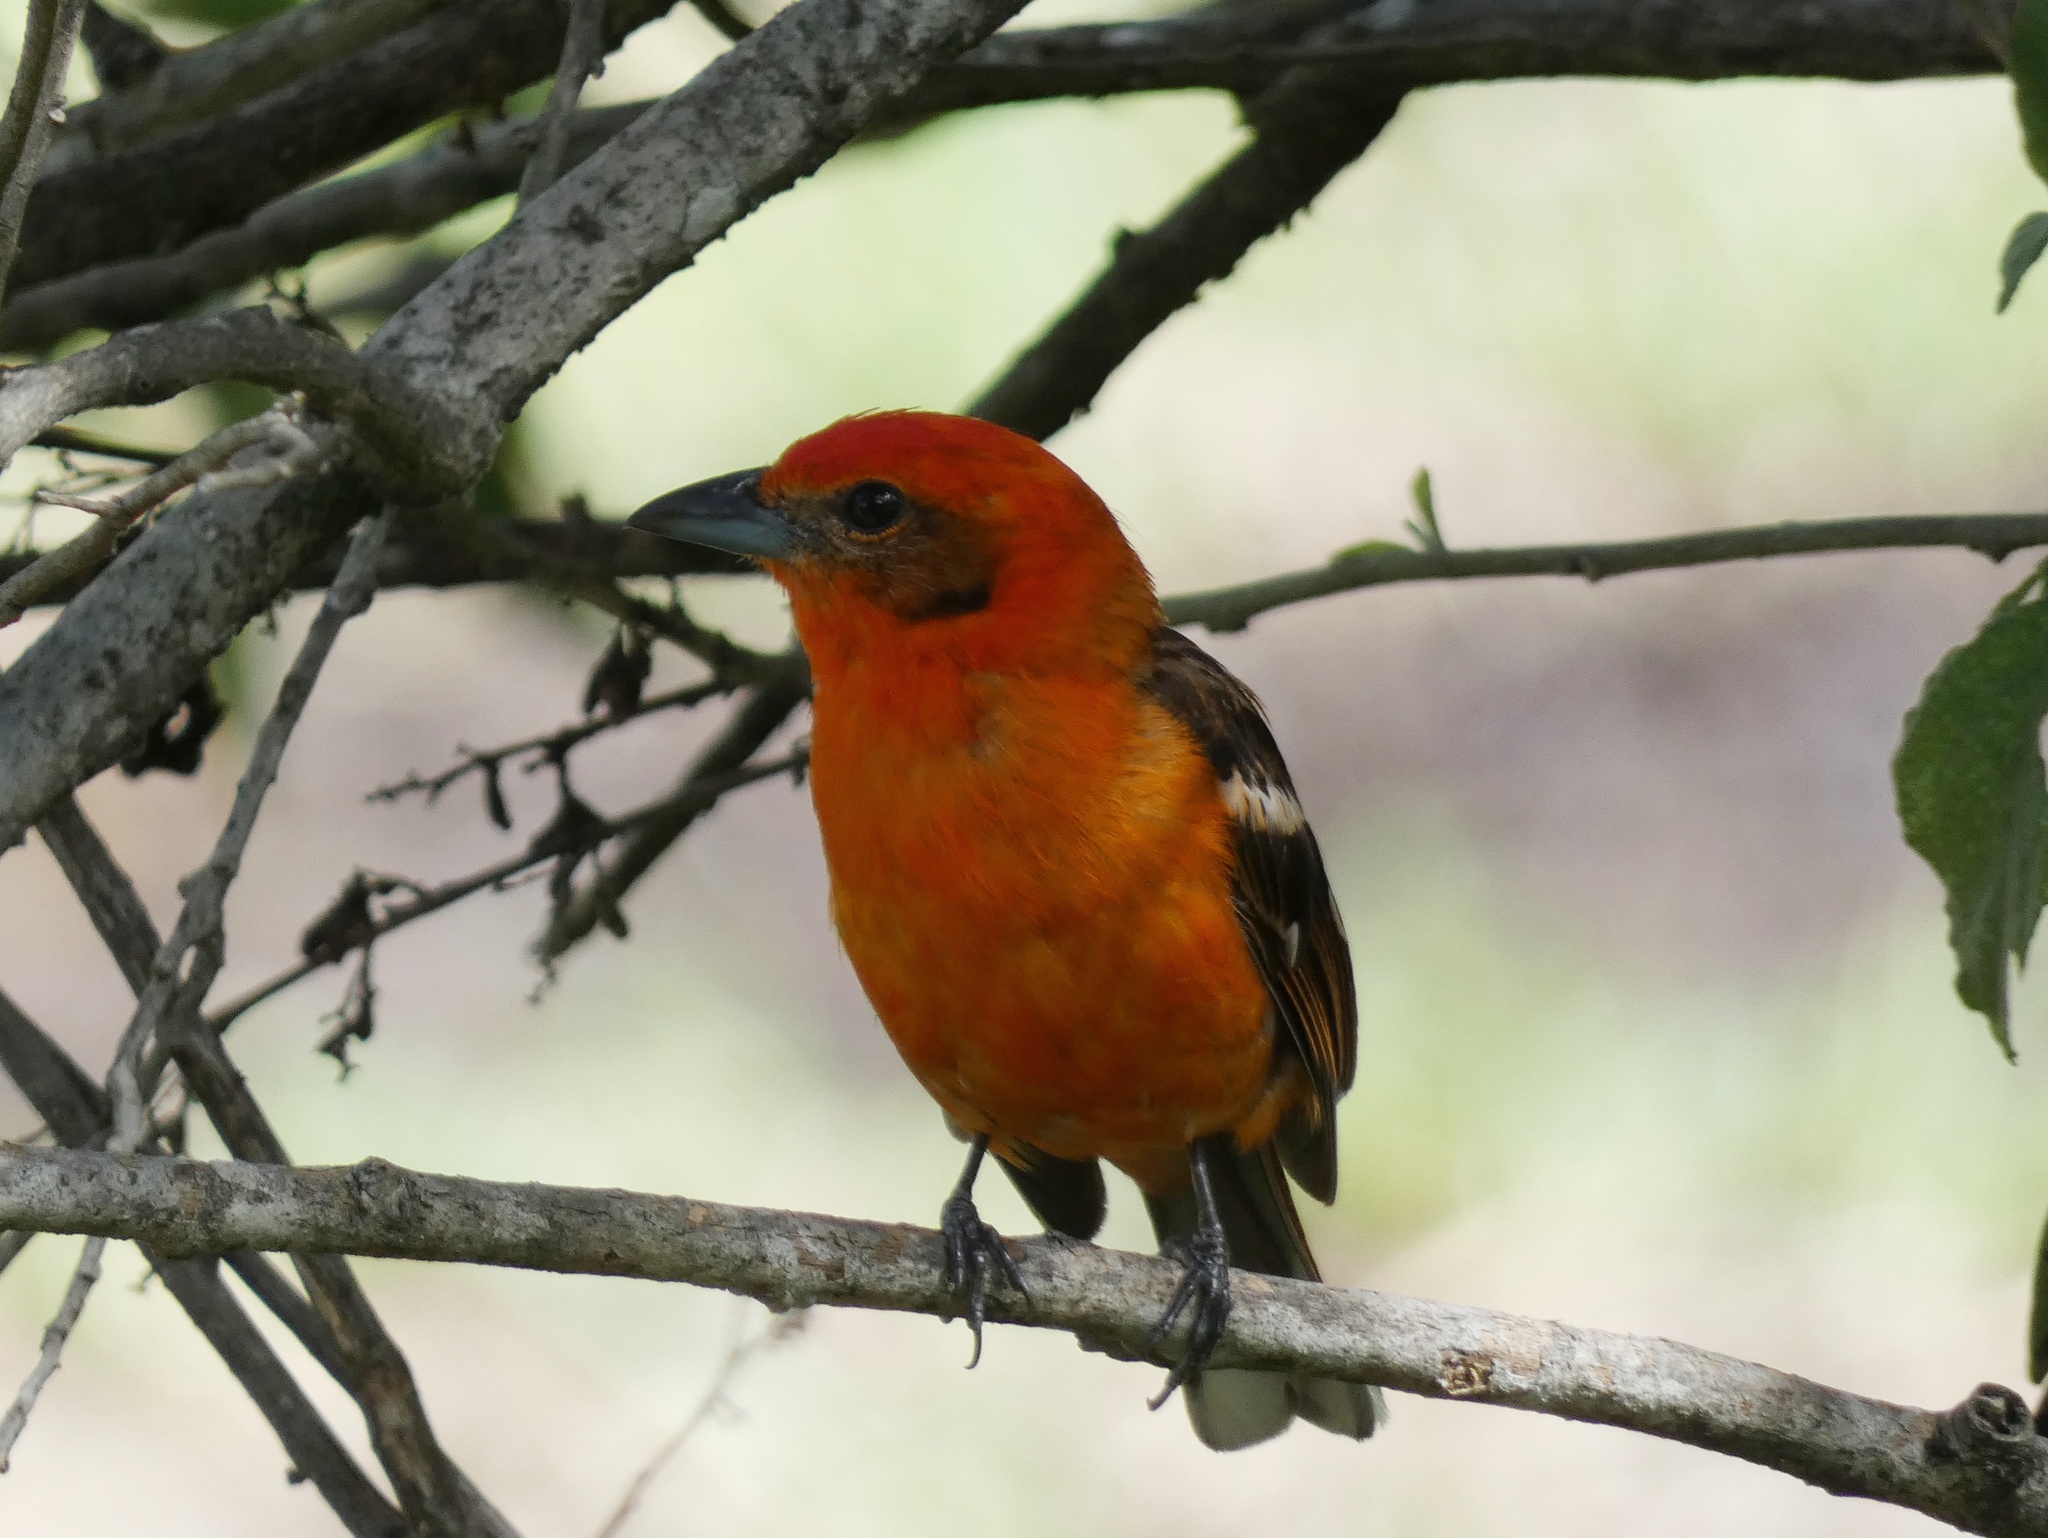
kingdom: Animalia
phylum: Chordata
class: Aves
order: Passeriformes
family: Cardinalidae
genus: Piranga
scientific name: Piranga bidentata
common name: Flame-colored tanager
